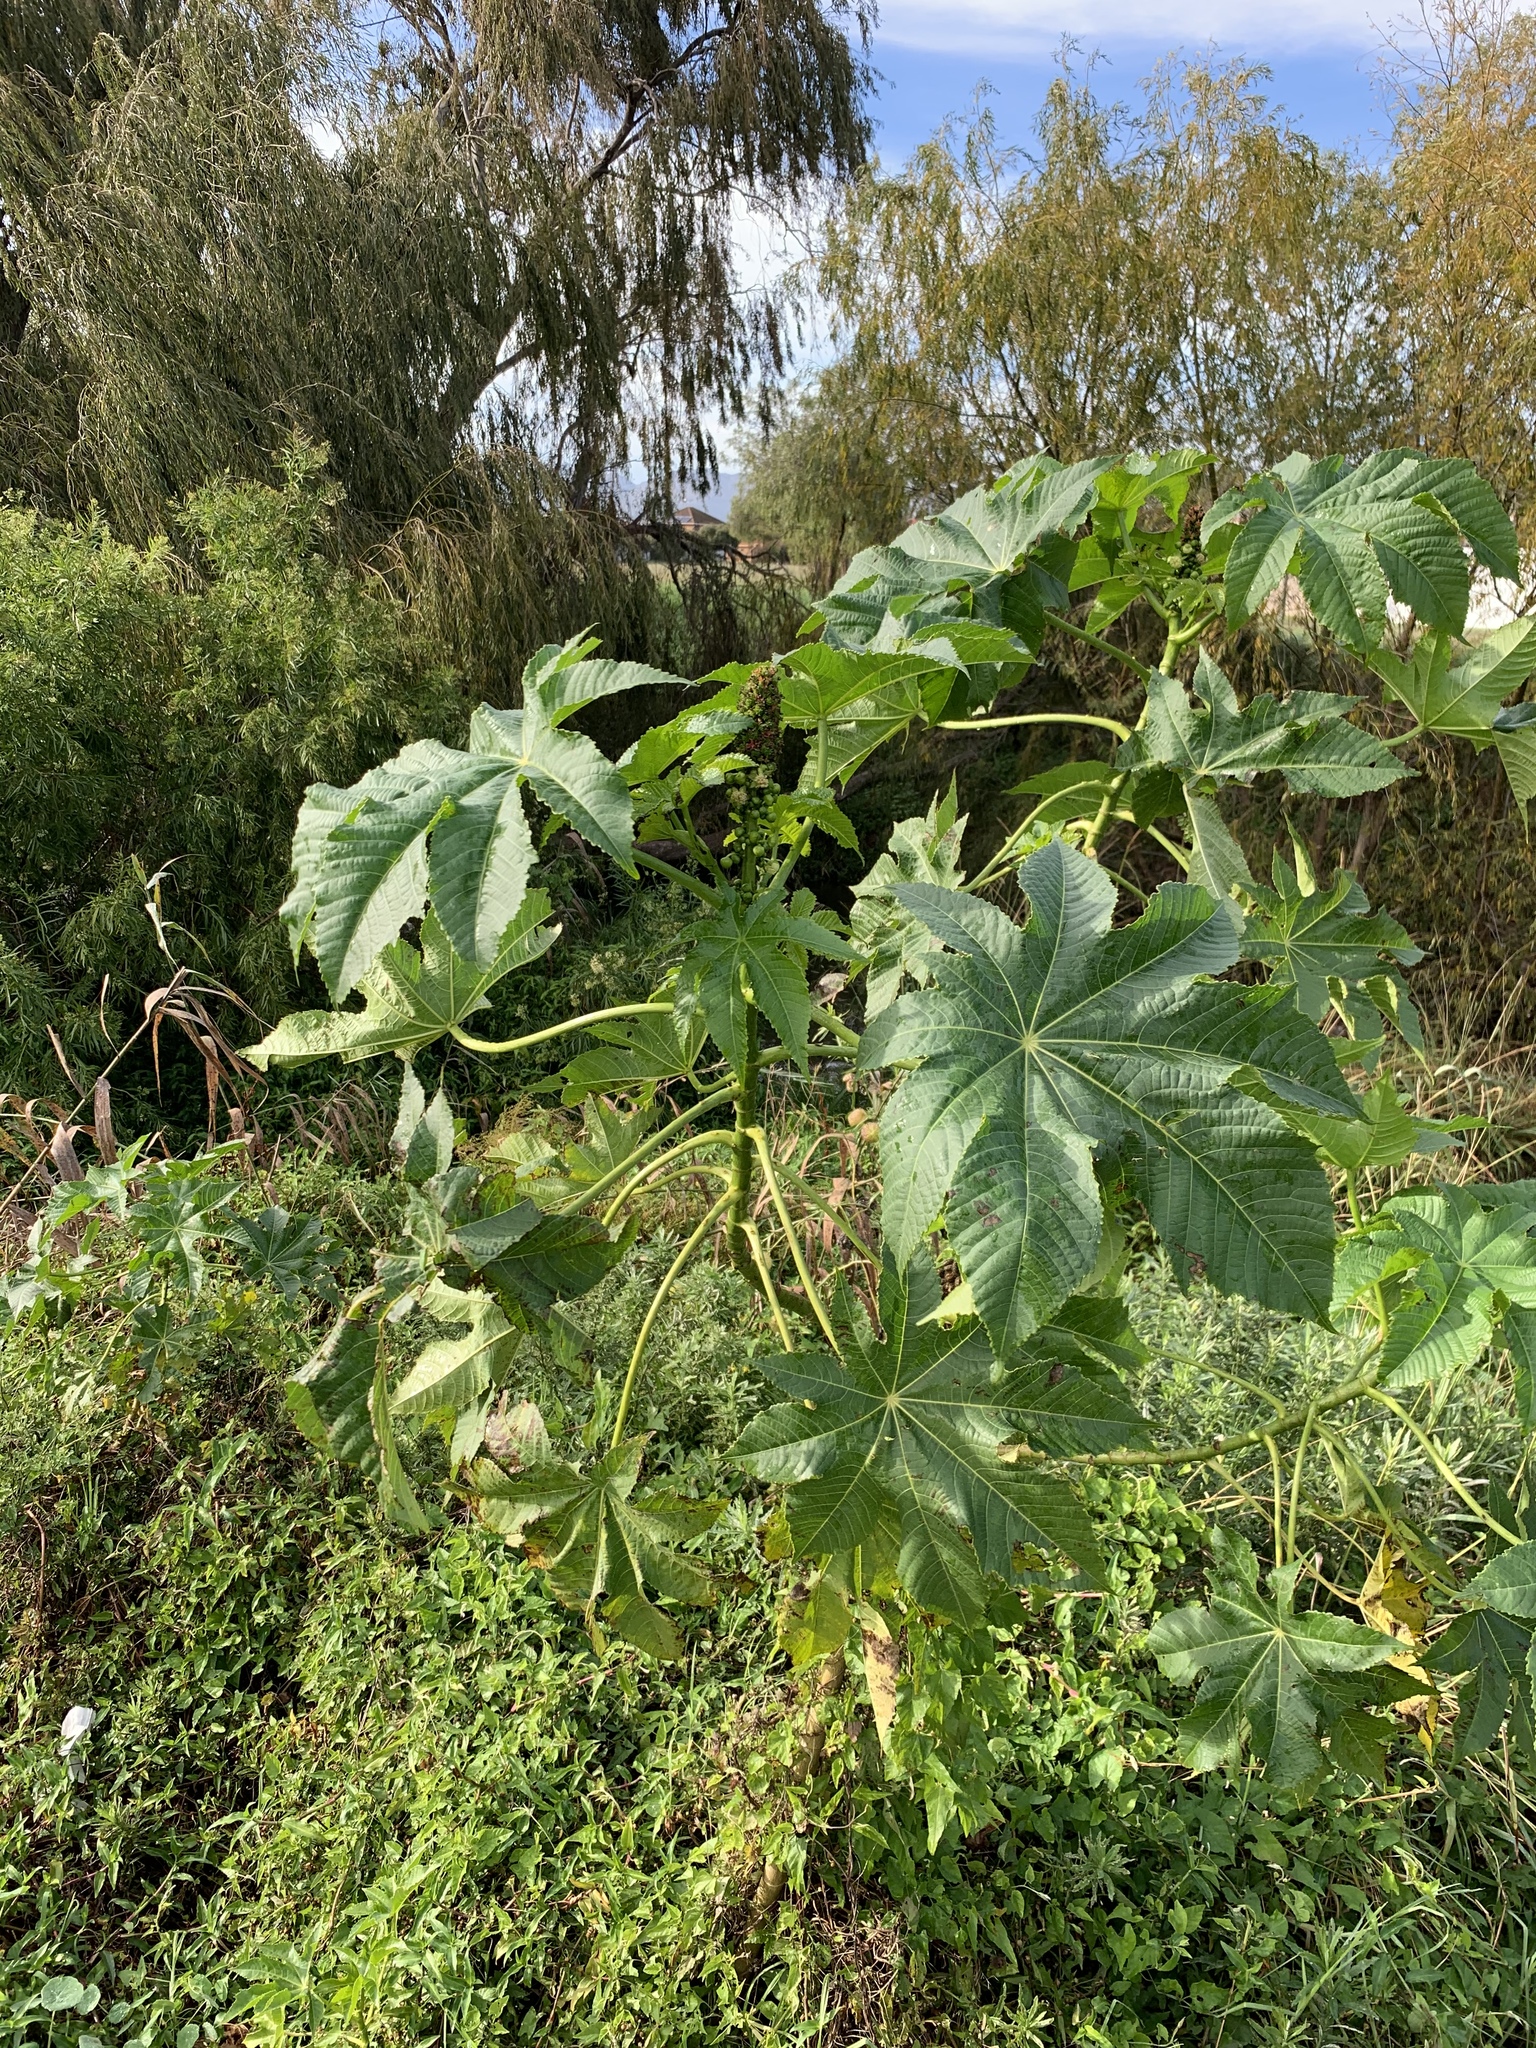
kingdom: Plantae
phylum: Tracheophyta
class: Magnoliopsida
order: Malpighiales
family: Euphorbiaceae
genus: Ricinus
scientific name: Ricinus communis
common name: Castor-oil-plant
